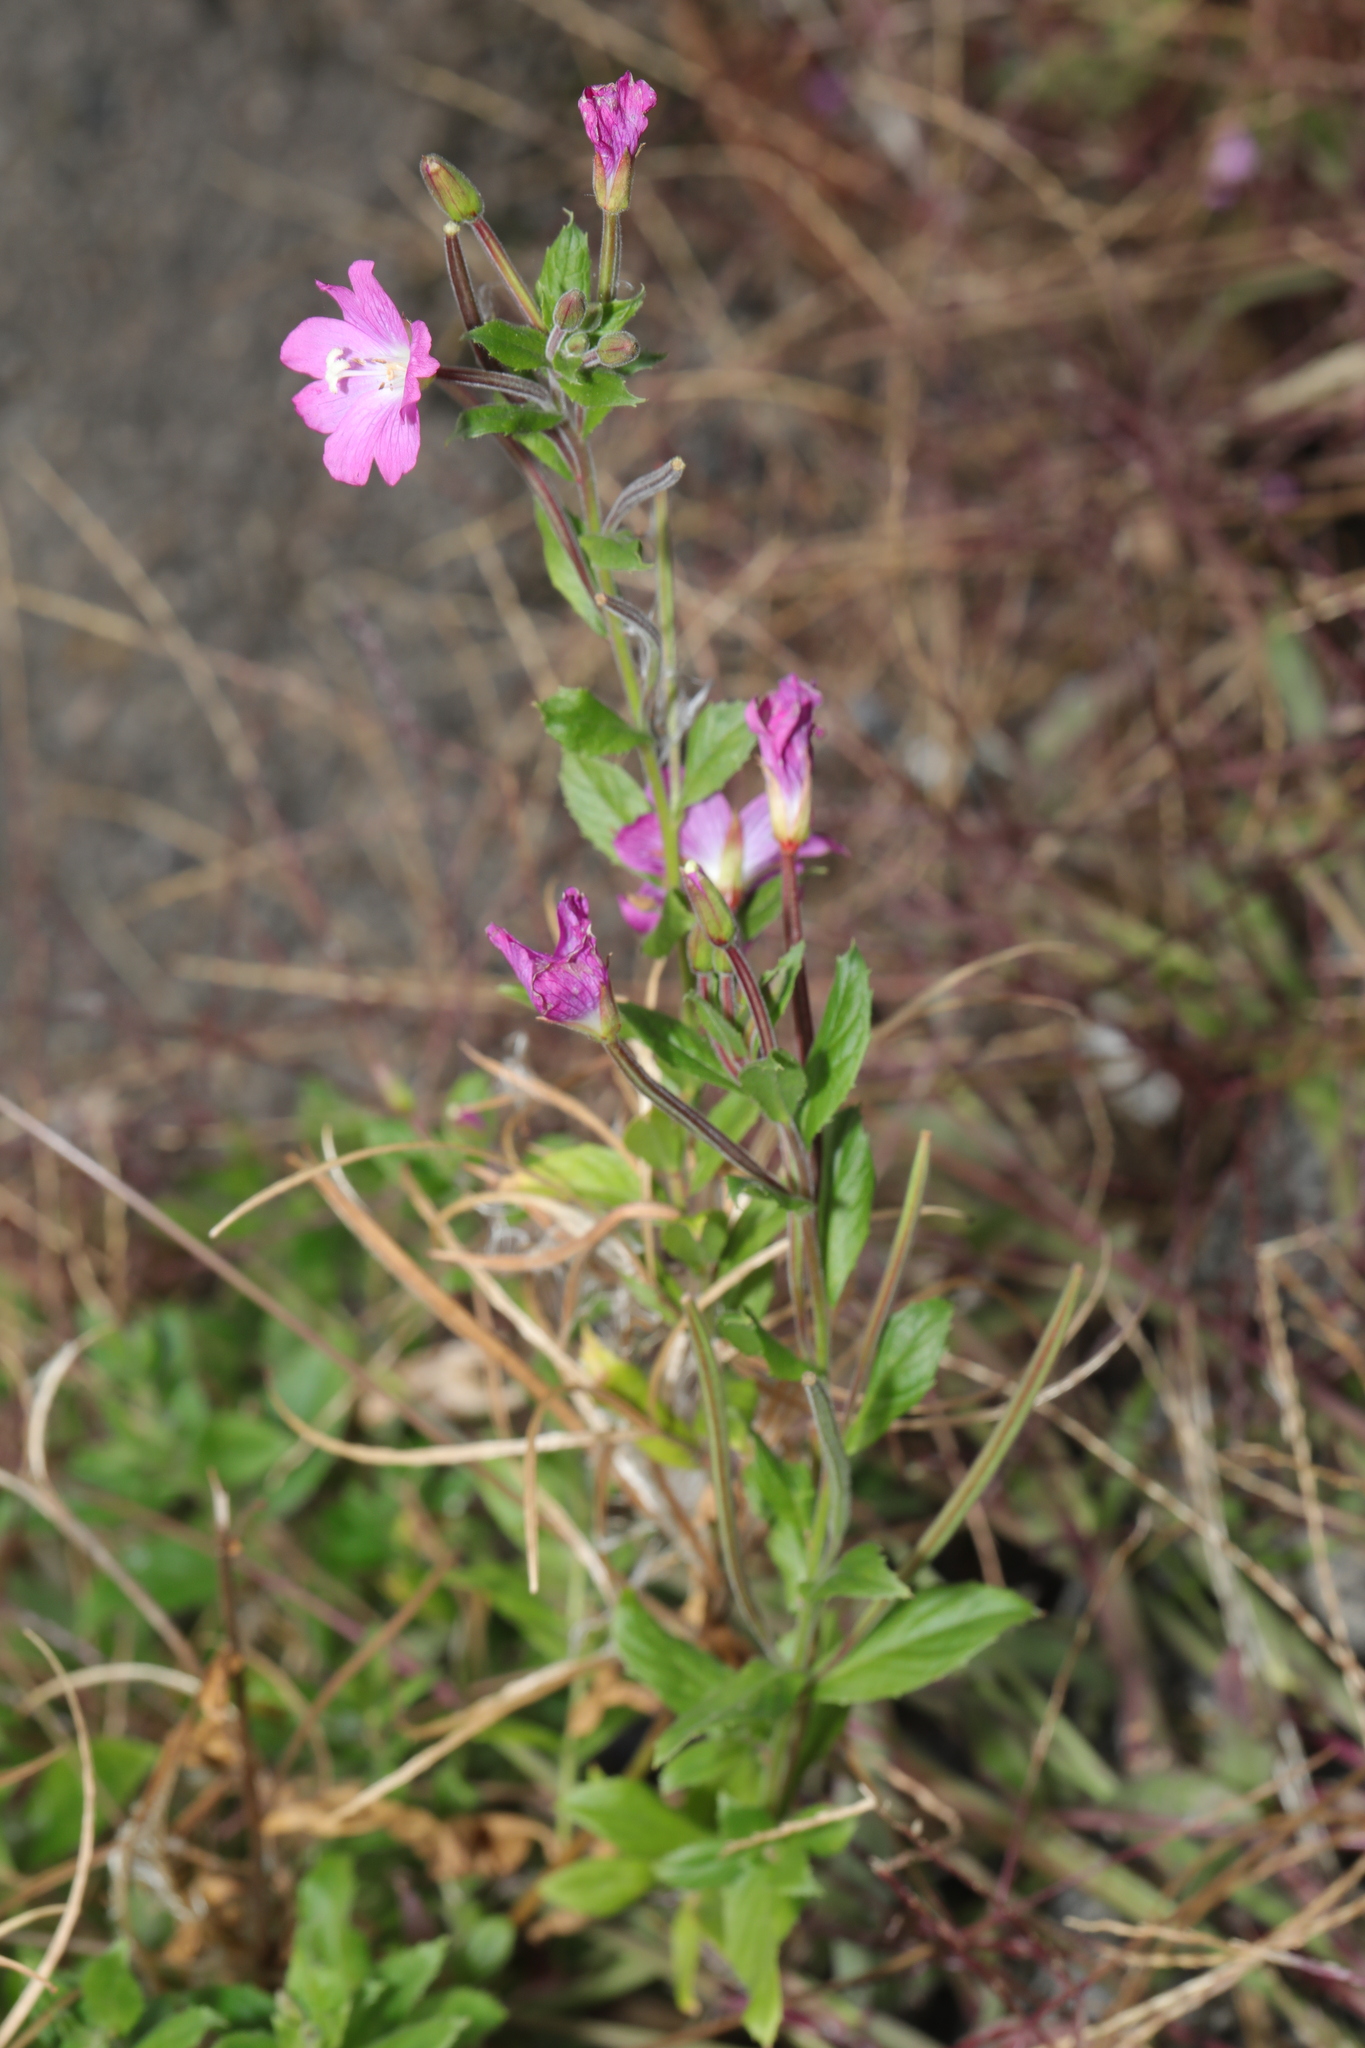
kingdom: Plantae
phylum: Tracheophyta
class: Magnoliopsida
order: Myrtales
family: Onagraceae
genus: Epilobium
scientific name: Epilobium hirsutum
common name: Great willowherb
